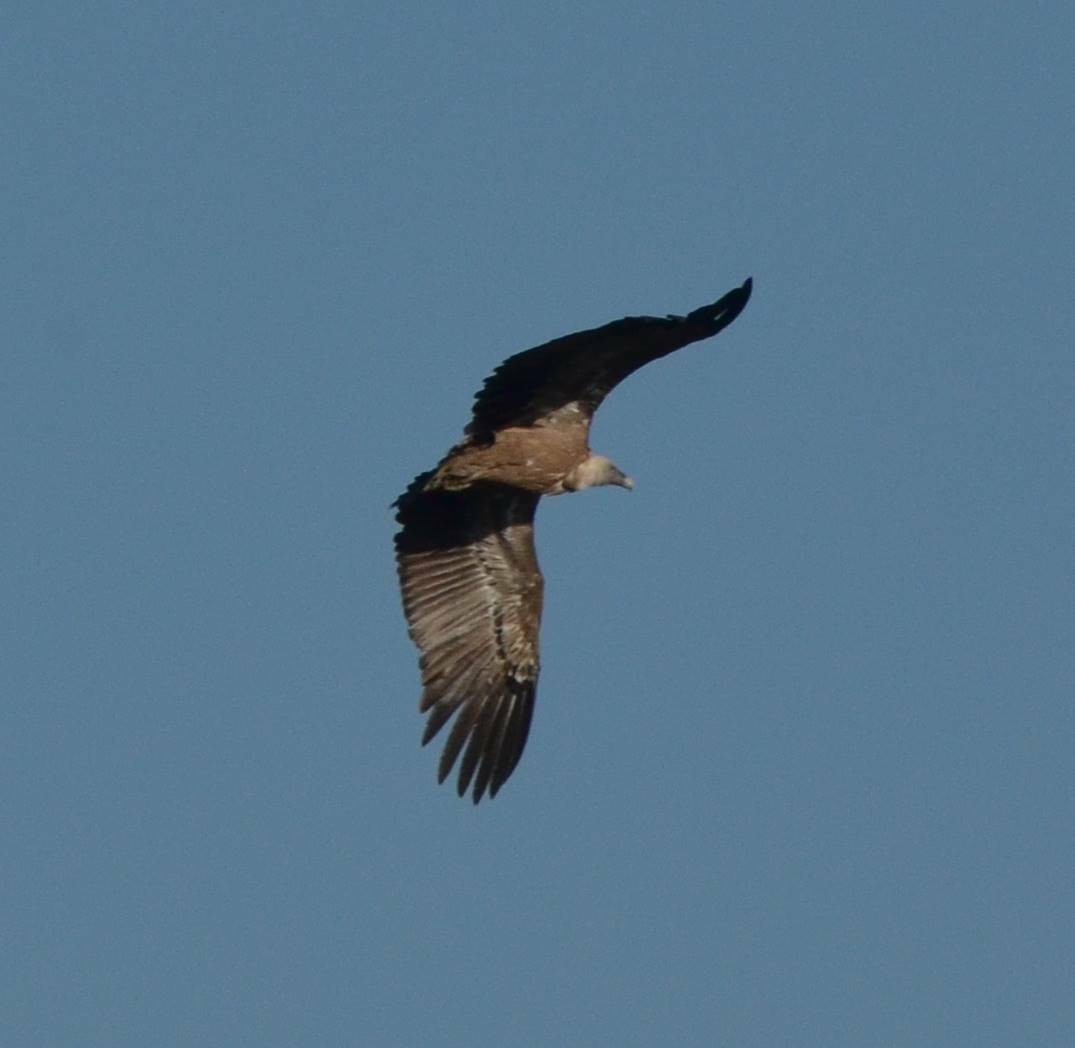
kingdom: Animalia
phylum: Chordata
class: Aves
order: Accipitriformes
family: Accipitridae
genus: Gyps
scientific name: Gyps fulvus
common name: Griffon vulture
